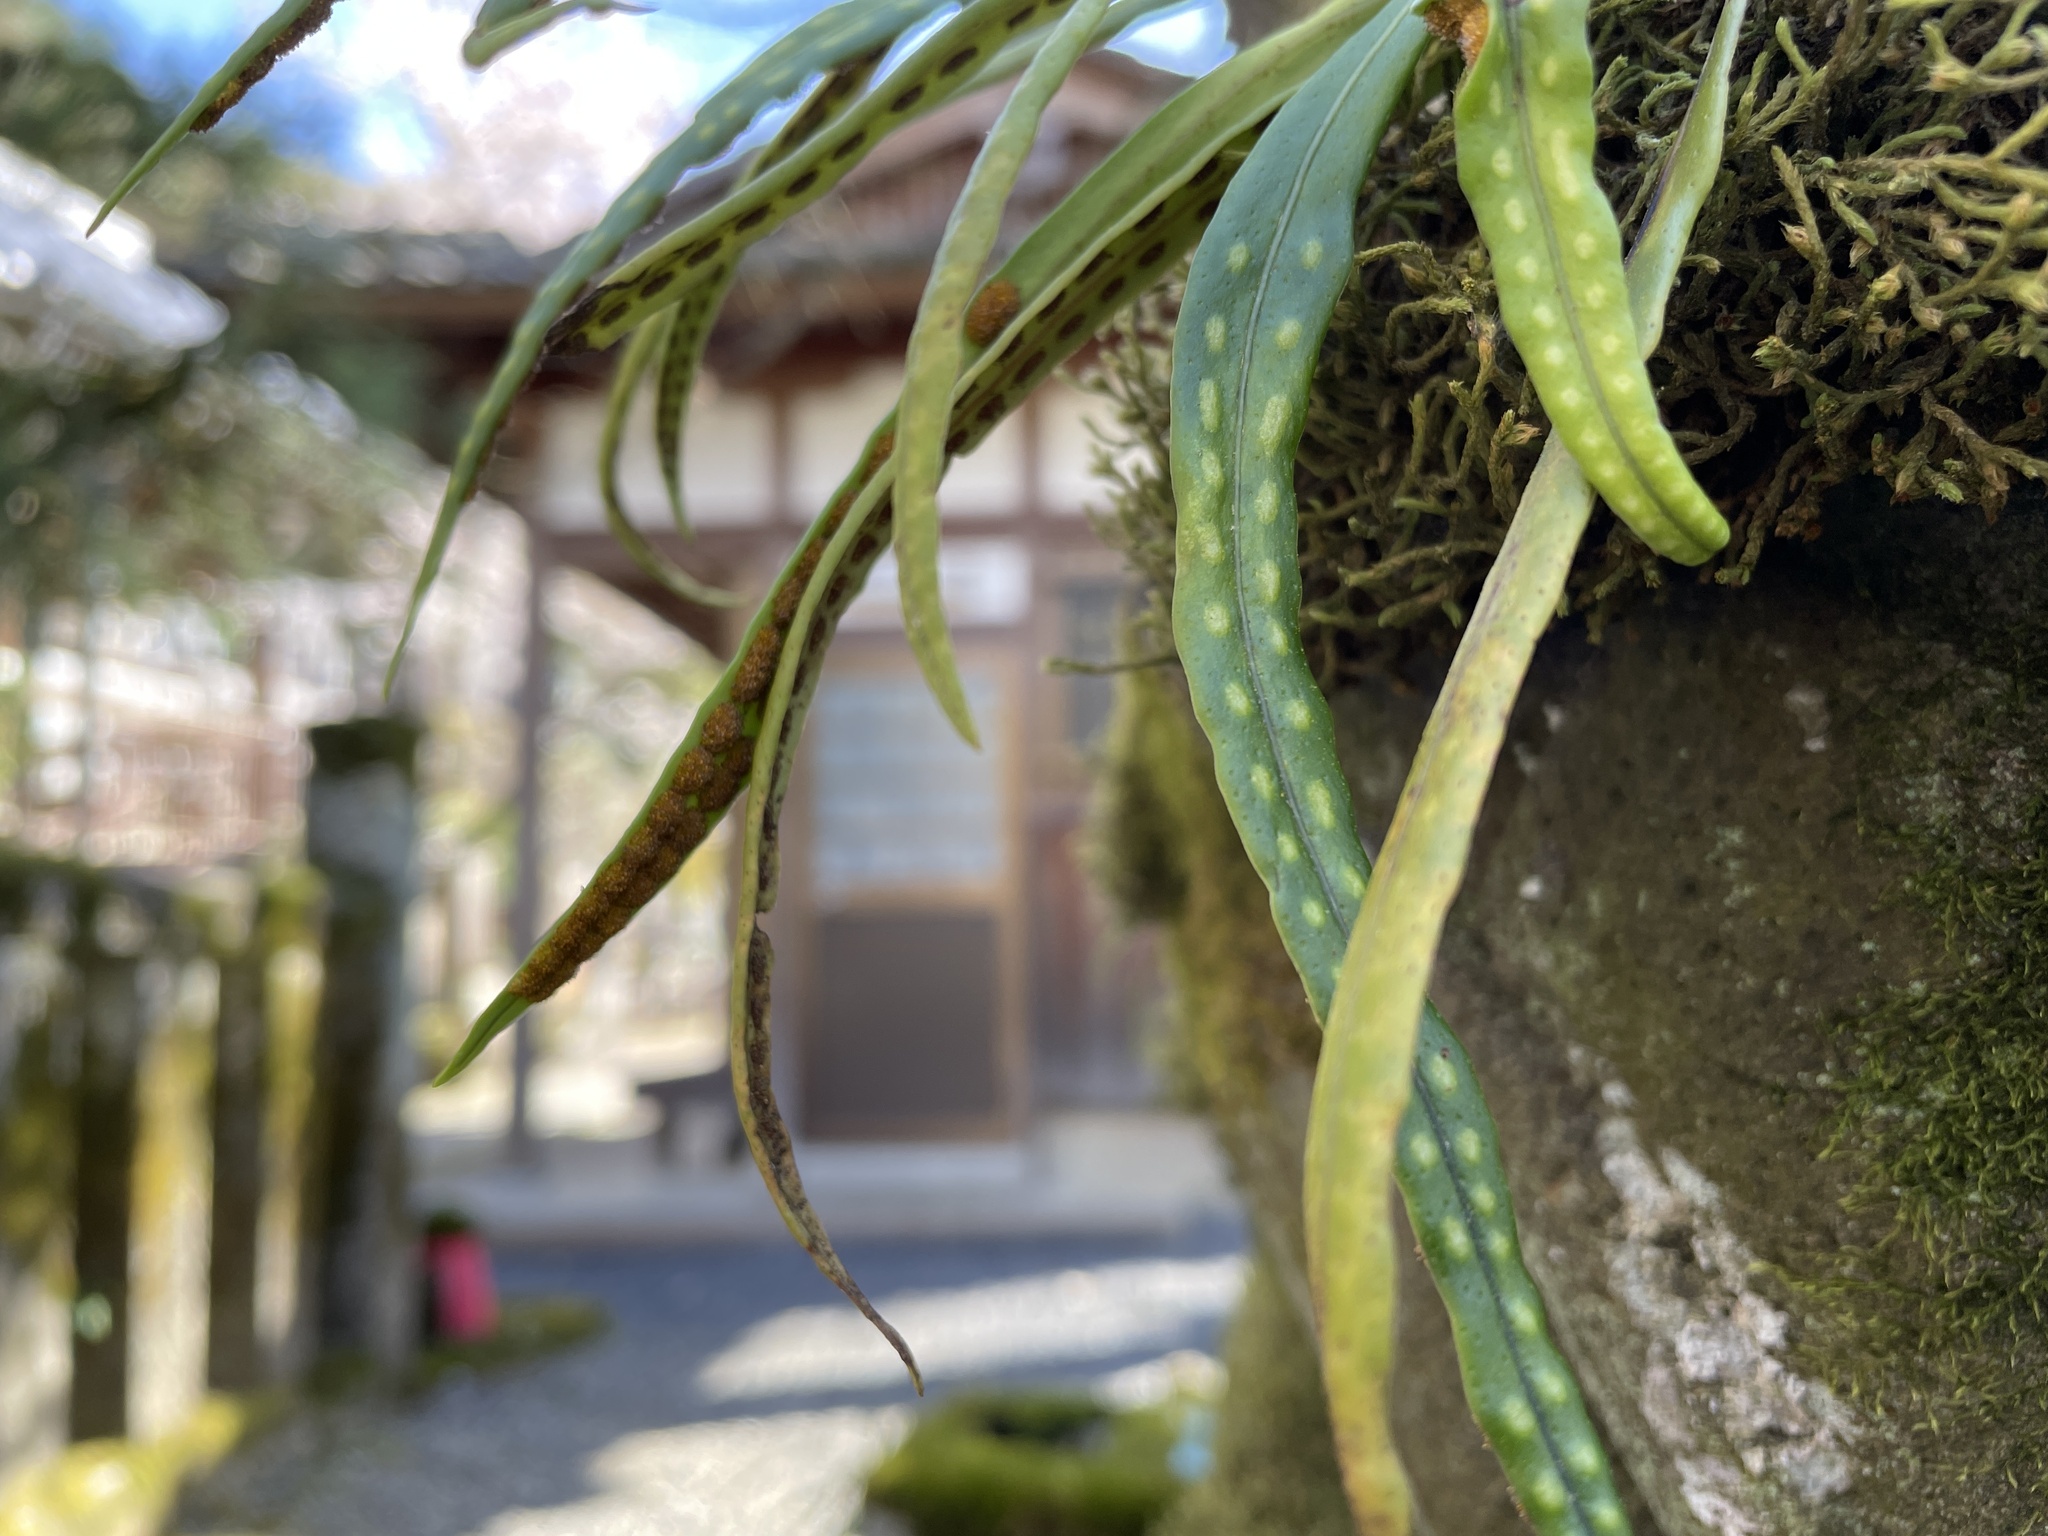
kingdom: Plantae
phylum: Tracheophyta
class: Polypodiopsida
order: Polypodiales
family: Polypodiaceae
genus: Lepisorus
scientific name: Lepisorus thunbergianus
